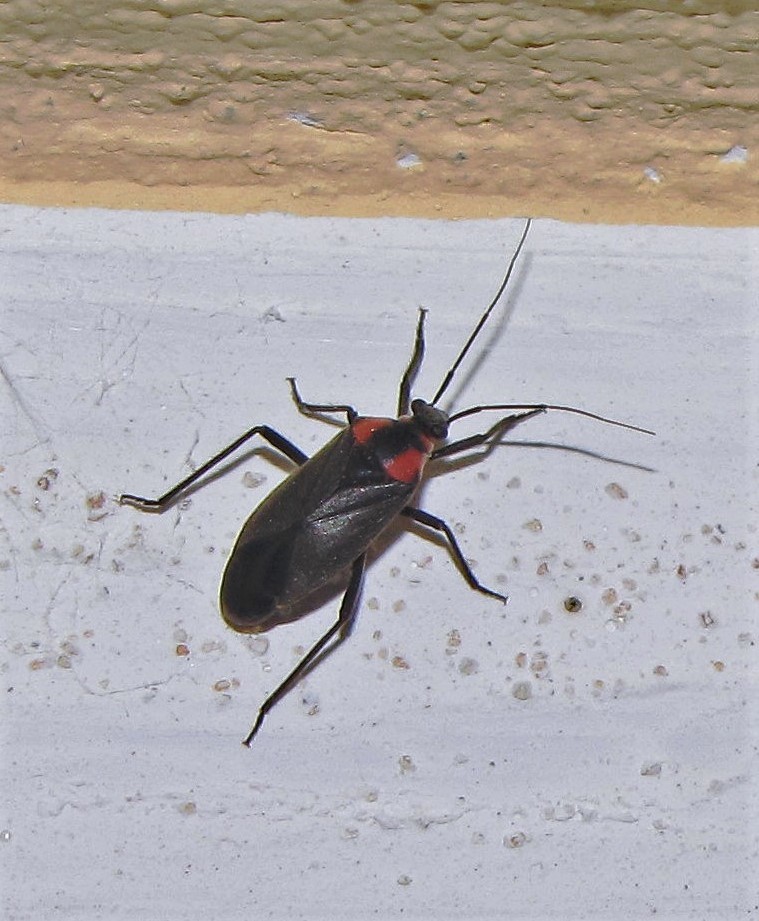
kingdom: Animalia
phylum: Arthropoda
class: Insecta
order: Hemiptera
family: Miridae
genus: Prepops
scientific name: Prepops procorrentinus
